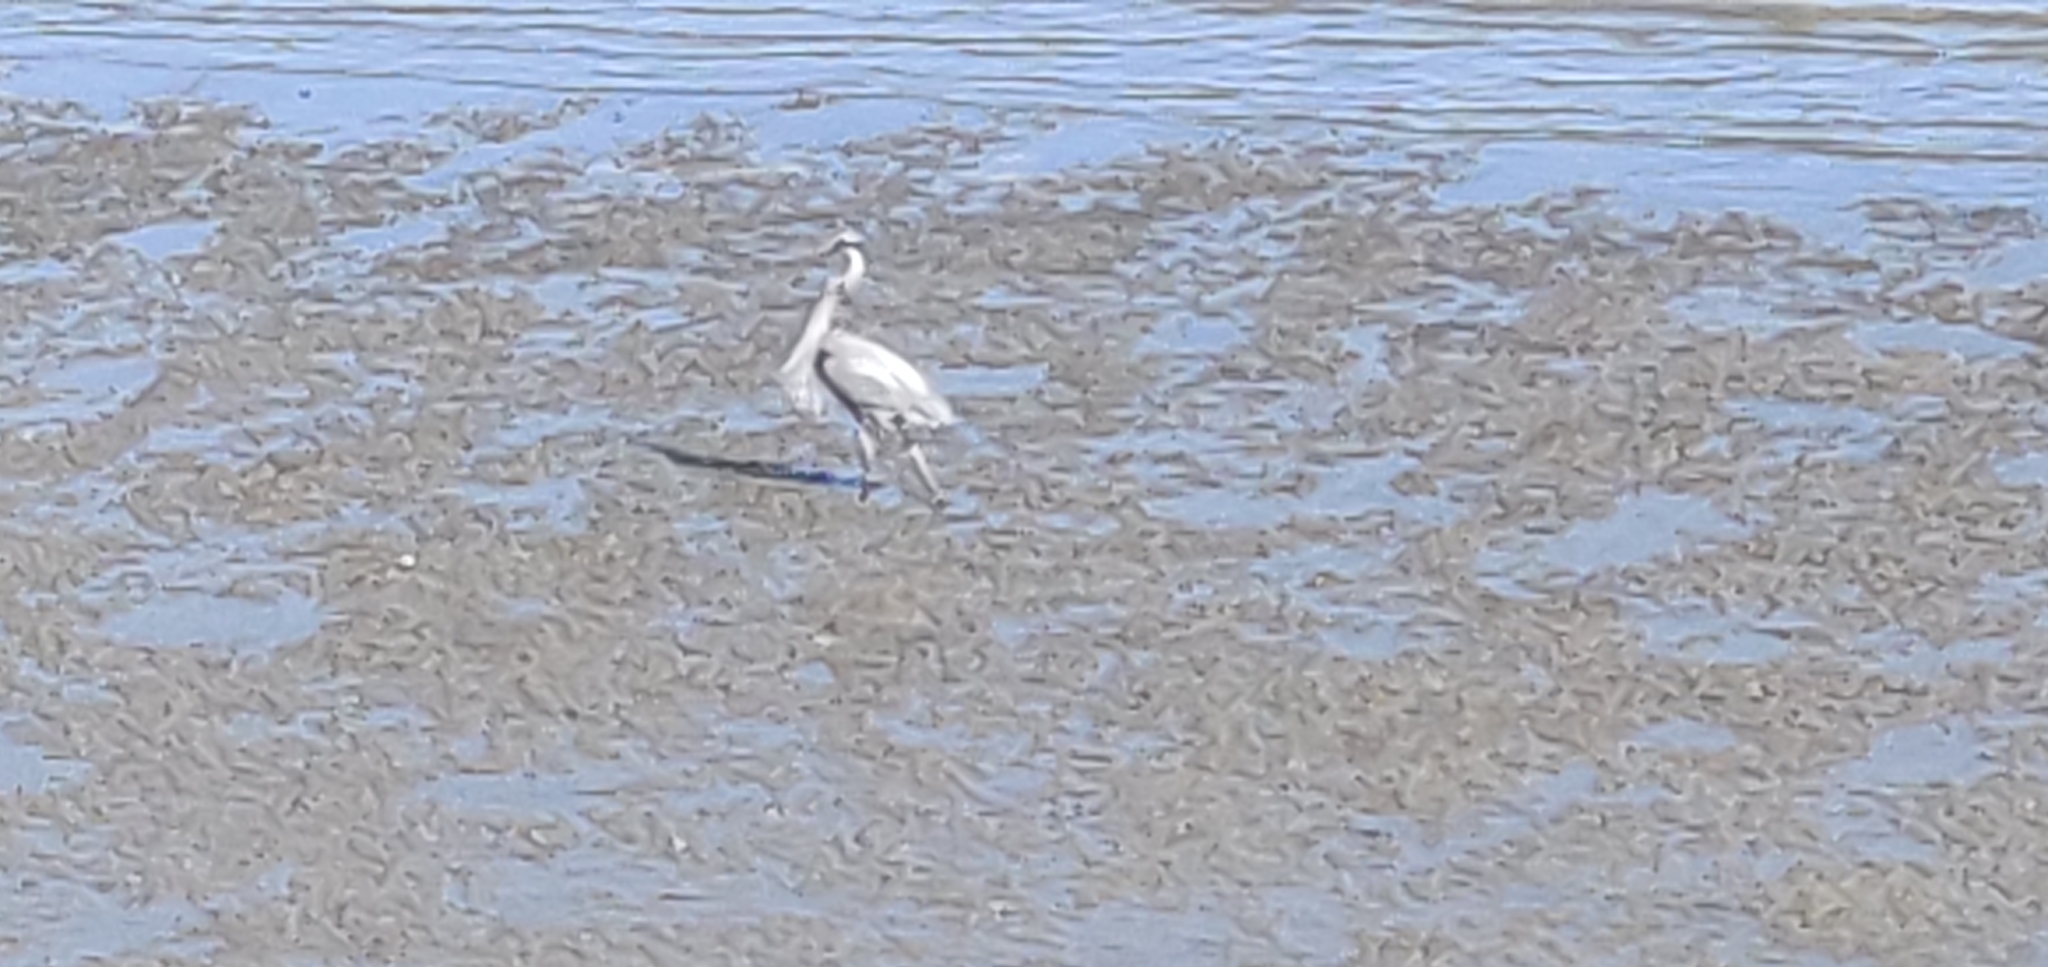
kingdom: Animalia
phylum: Chordata
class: Aves
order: Pelecaniformes
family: Ardeidae
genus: Ardea
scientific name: Ardea herodias
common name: Great blue heron
